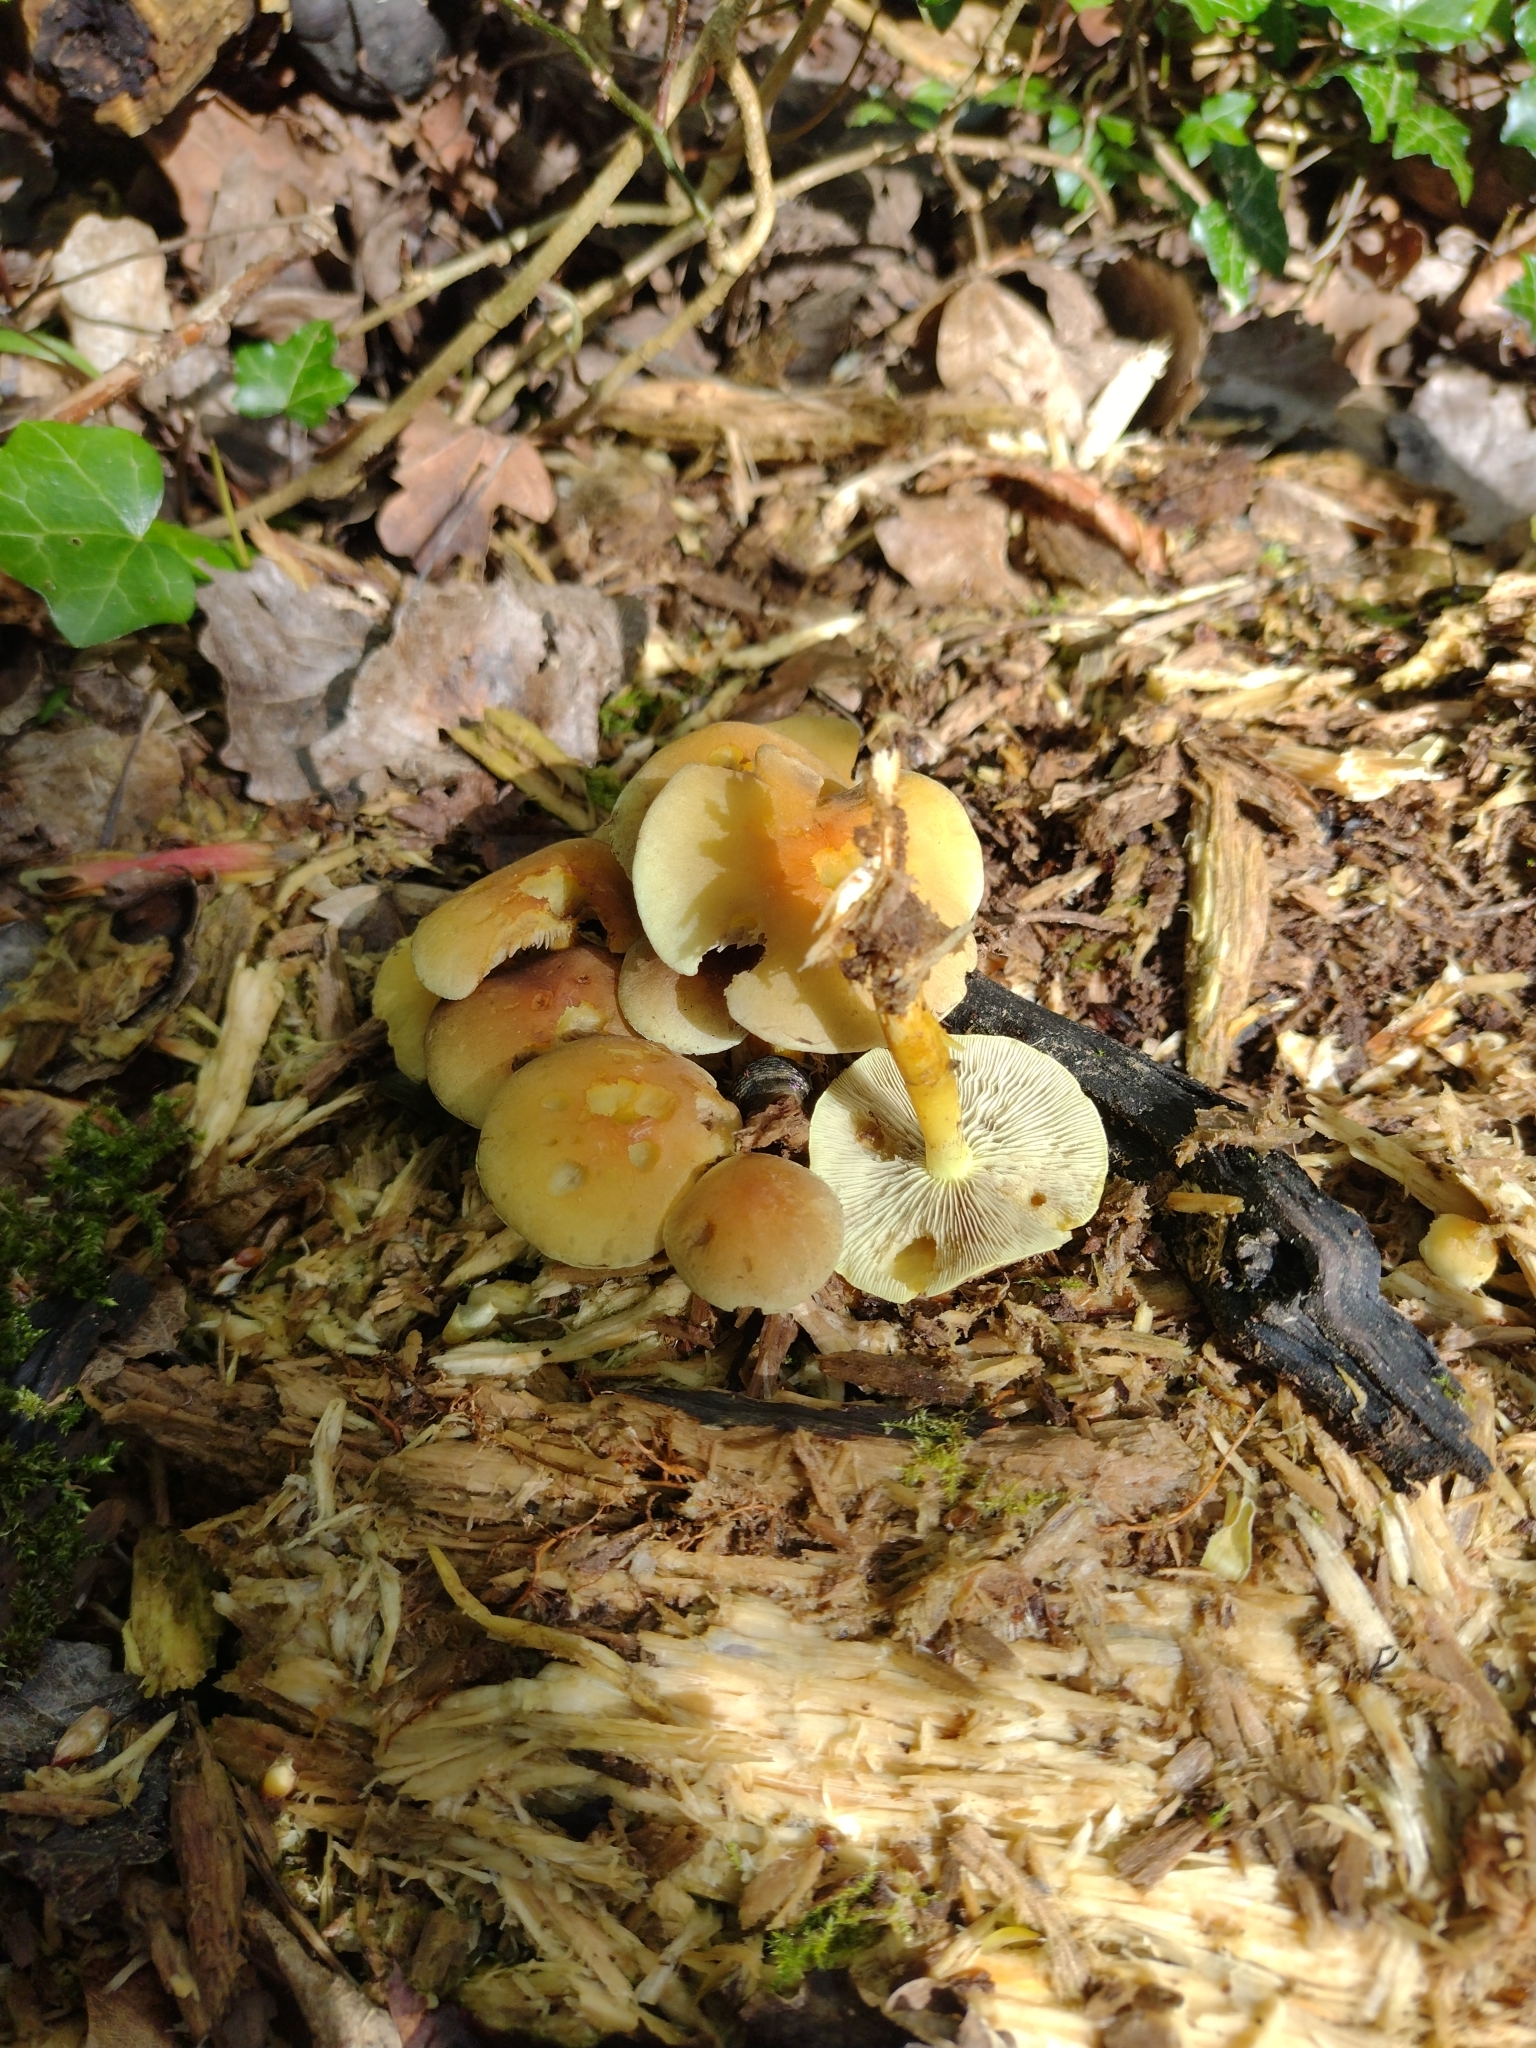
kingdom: Fungi
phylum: Basidiomycota
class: Agaricomycetes
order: Agaricales
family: Strophariaceae
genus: Hypholoma
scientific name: Hypholoma fasciculare
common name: Sulphur tuft
